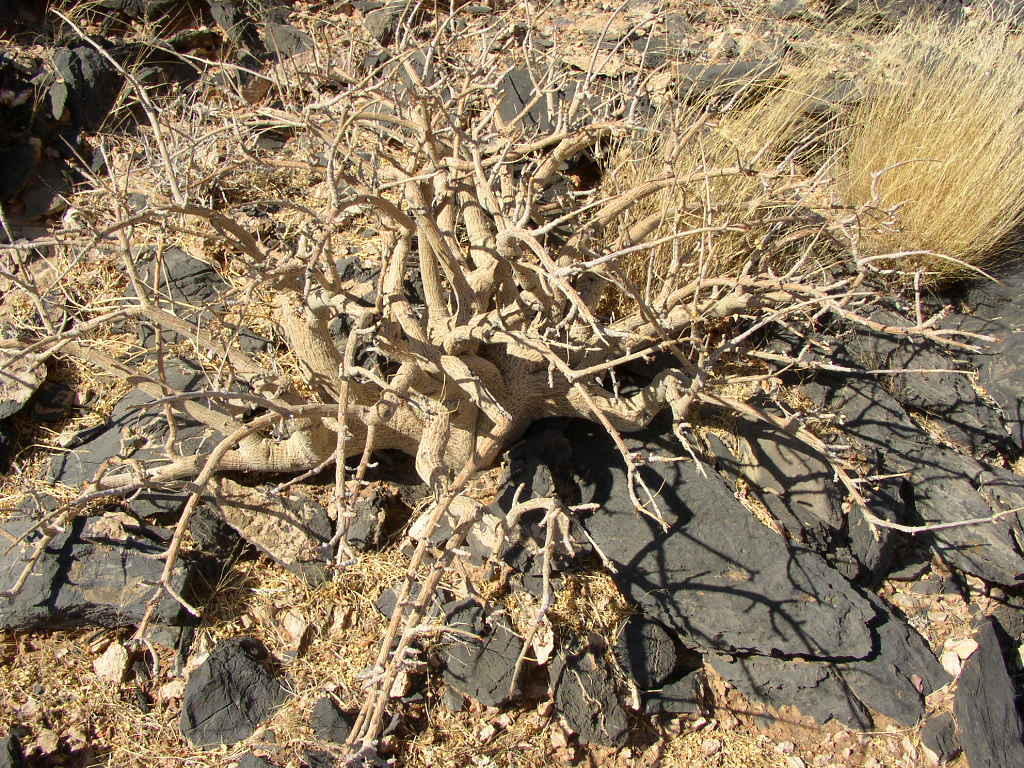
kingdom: Plantae
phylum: Tracheophyta
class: Magnoliopsida
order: Sapindales
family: Burseraceae
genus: Commiphora
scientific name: Commiphora dinteri
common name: Small-leaved commiphora
